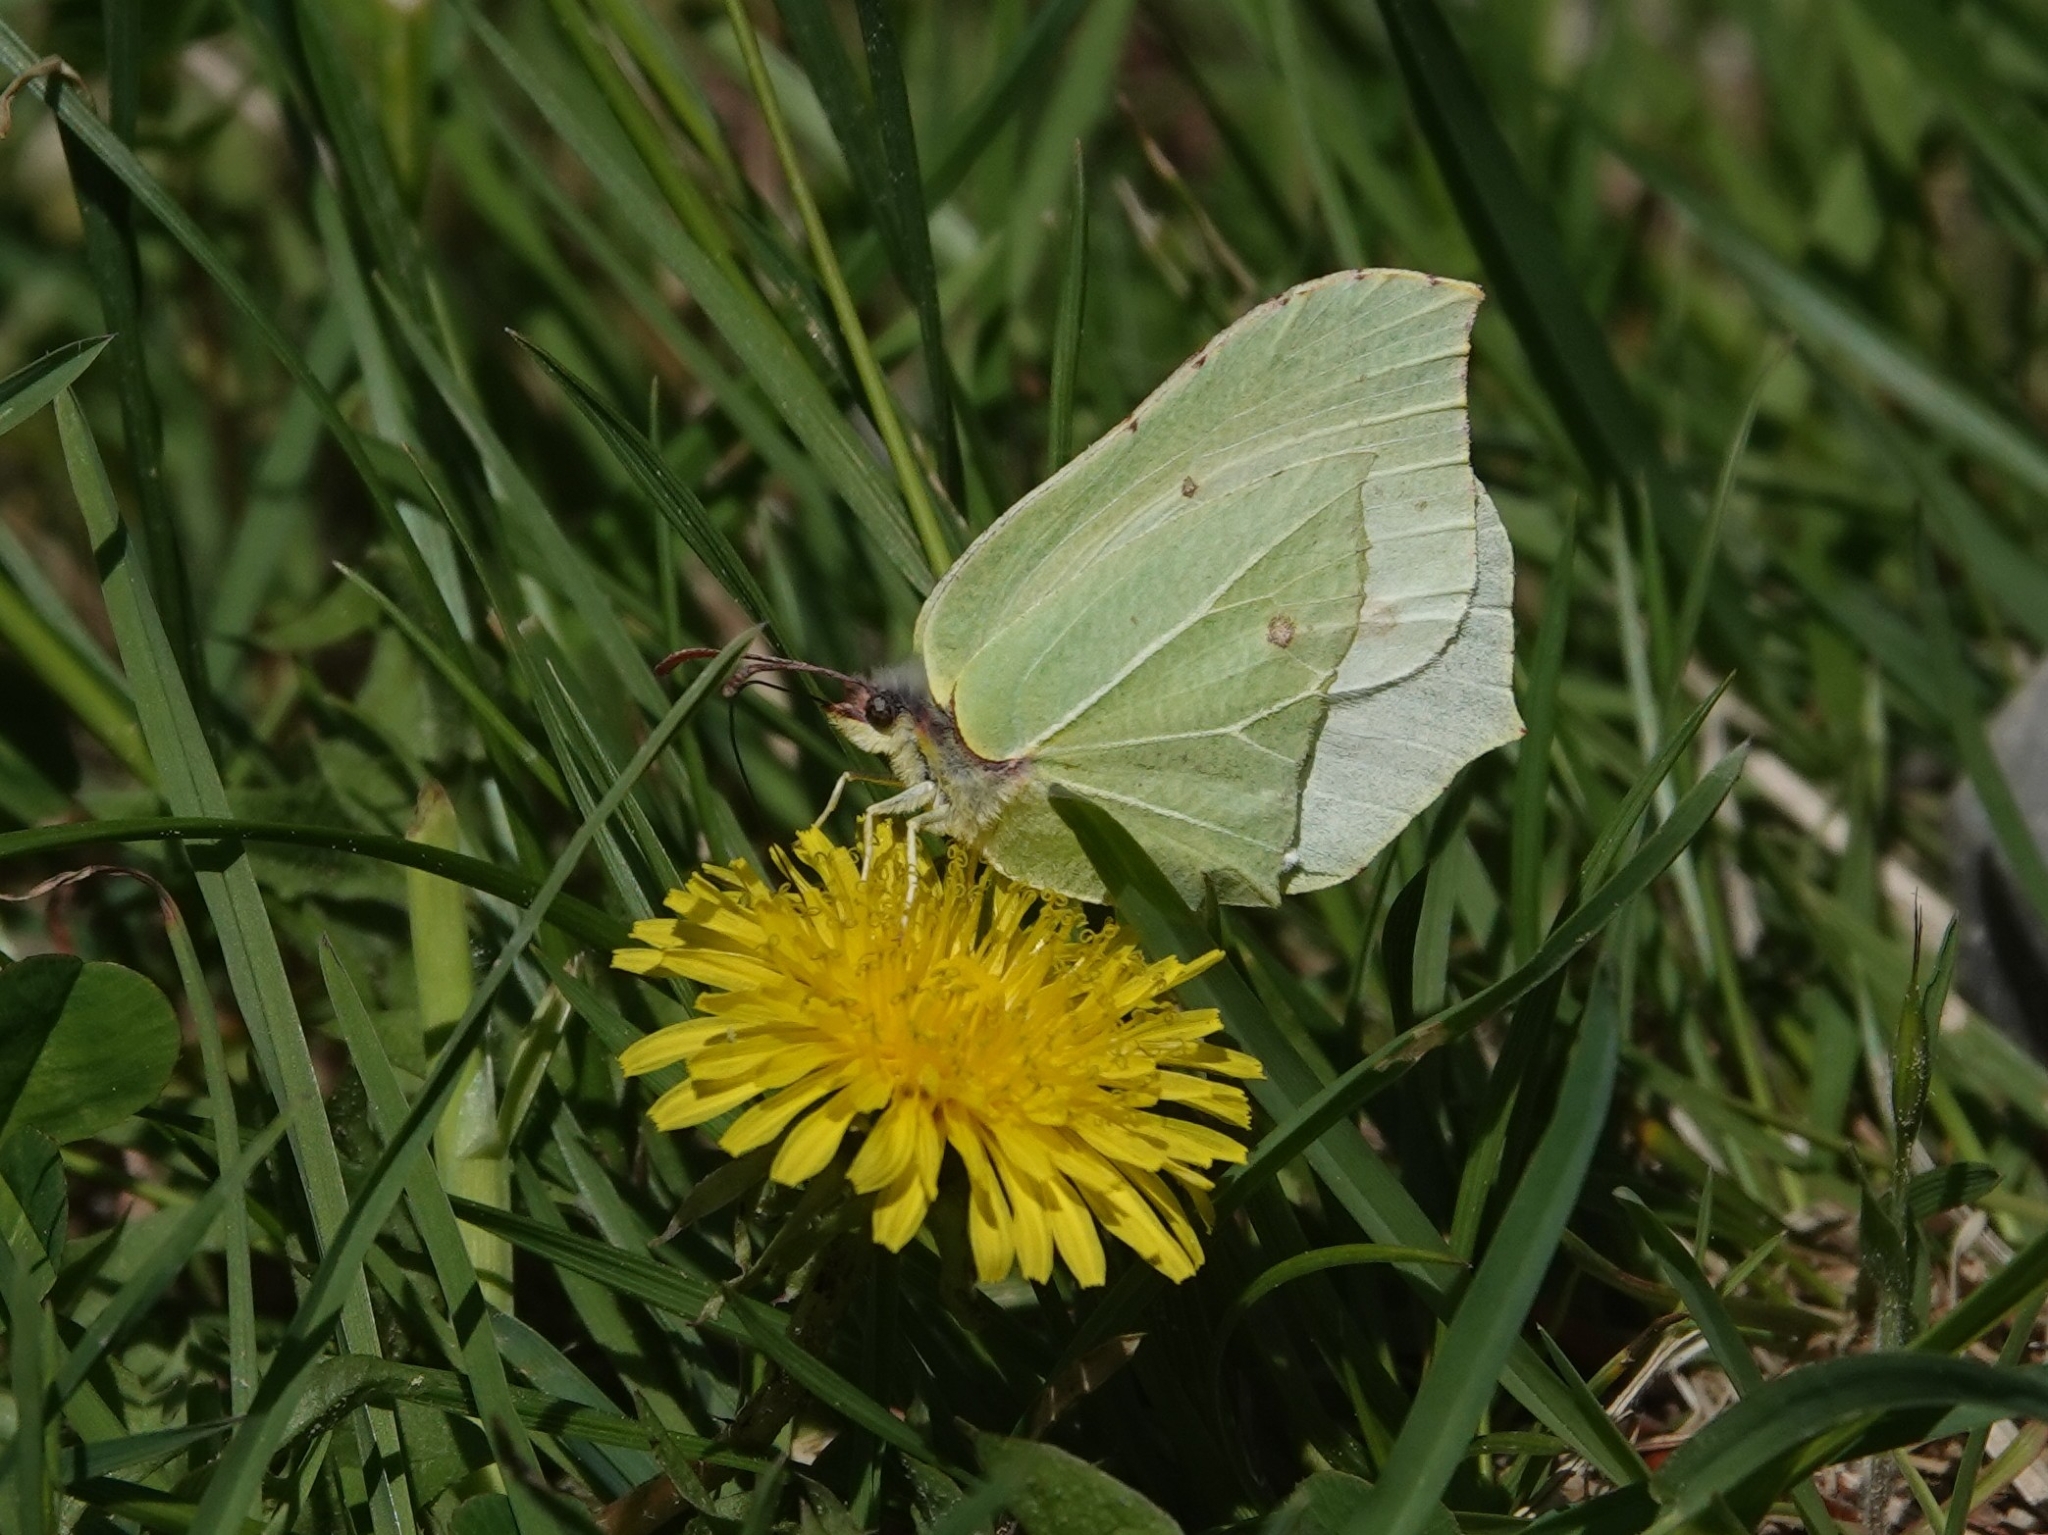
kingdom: Animalia
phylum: Arthropoda
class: Insecta
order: Lepidoptera
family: Pieridae
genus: Gonepteryx
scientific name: Gonepteryx rhamni
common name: Brimstone
